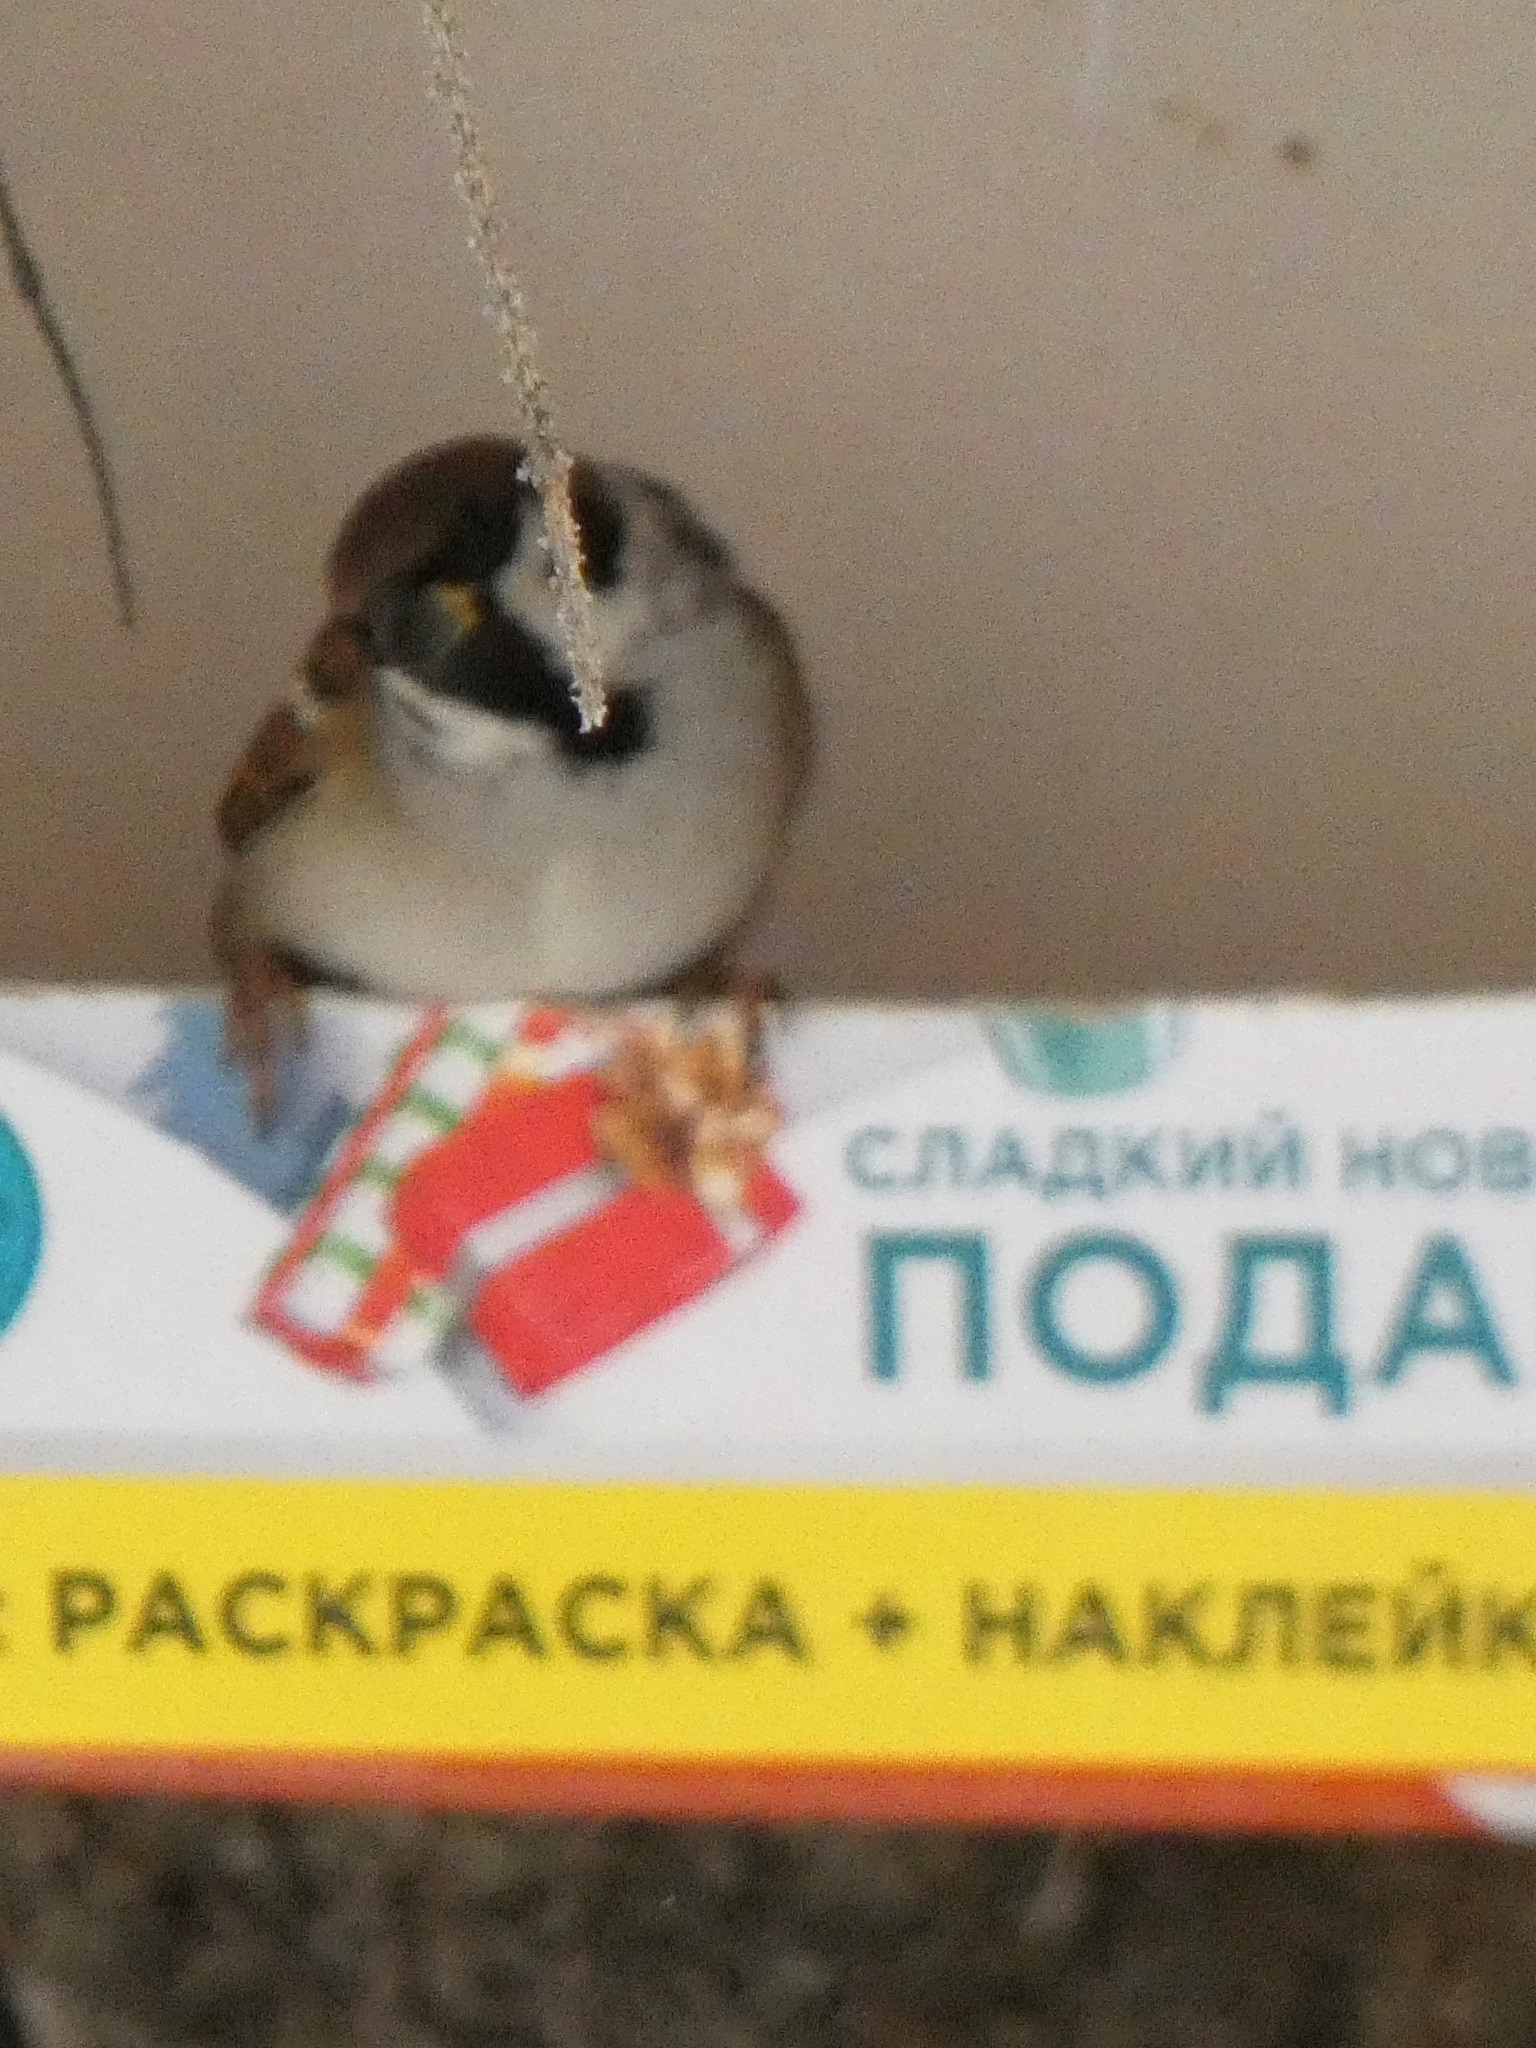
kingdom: Animalia
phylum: Chordata
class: Aves
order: Passeriformes
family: Passeridae
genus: Passer
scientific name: Passer montanus
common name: Eurasian tree sparrow
